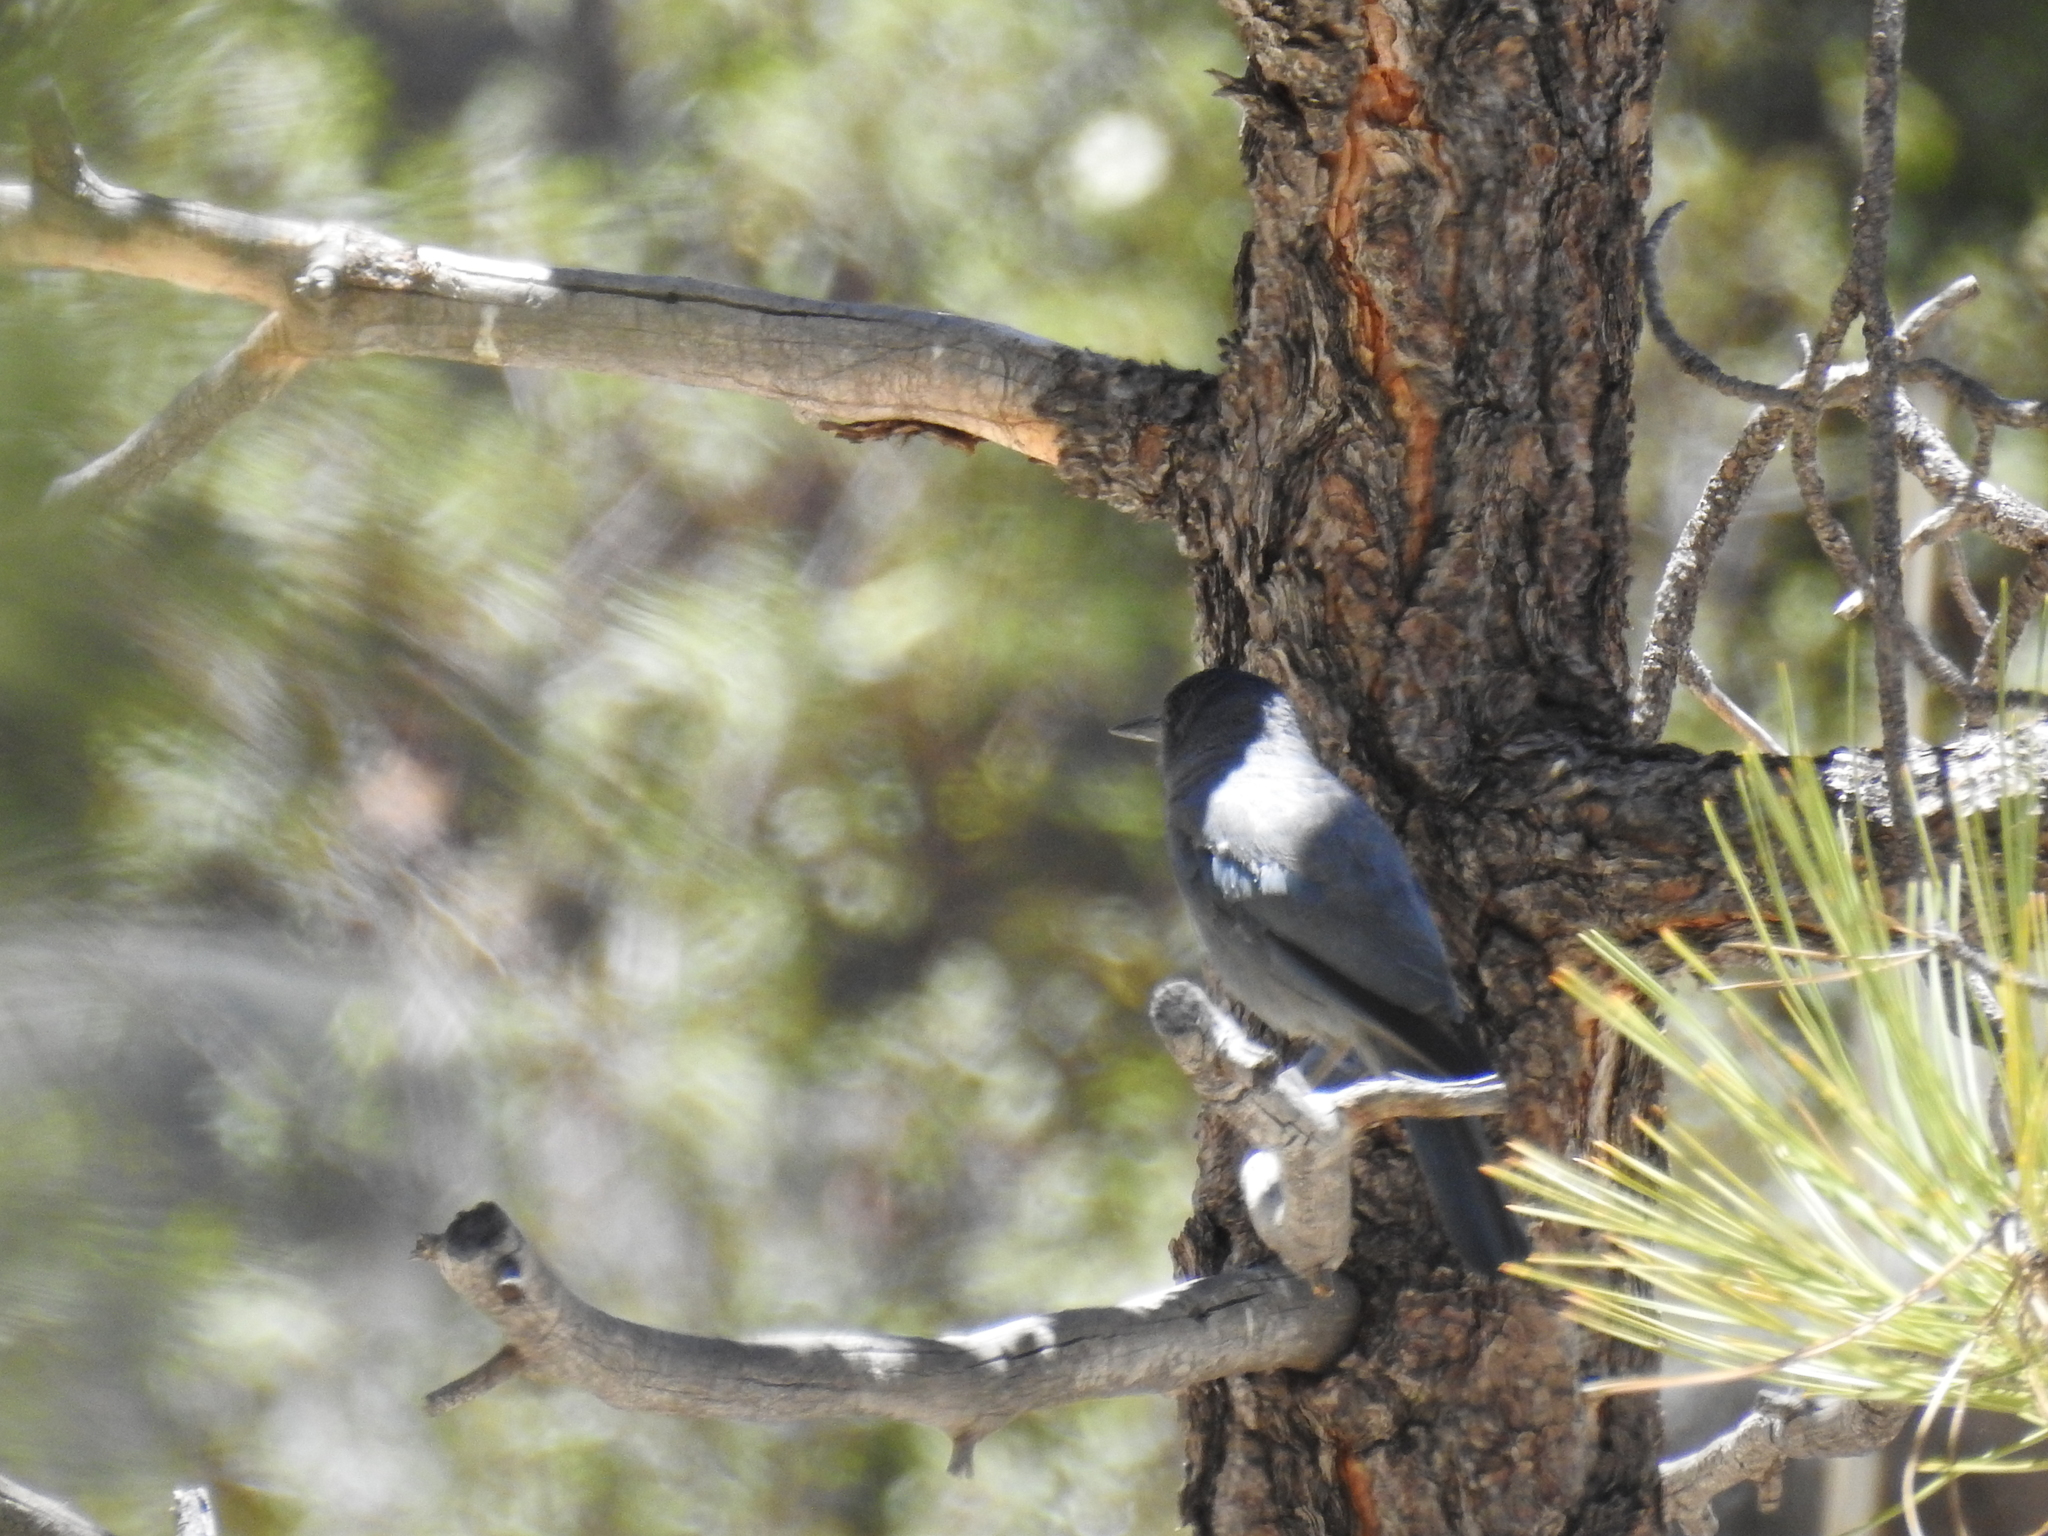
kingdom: Animalia
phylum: Chordata
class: Aves
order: Passeriformes
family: Corvidae
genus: Gymnorhinus
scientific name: Gymnorhinus cyanocephalus
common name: Pinyon jay
